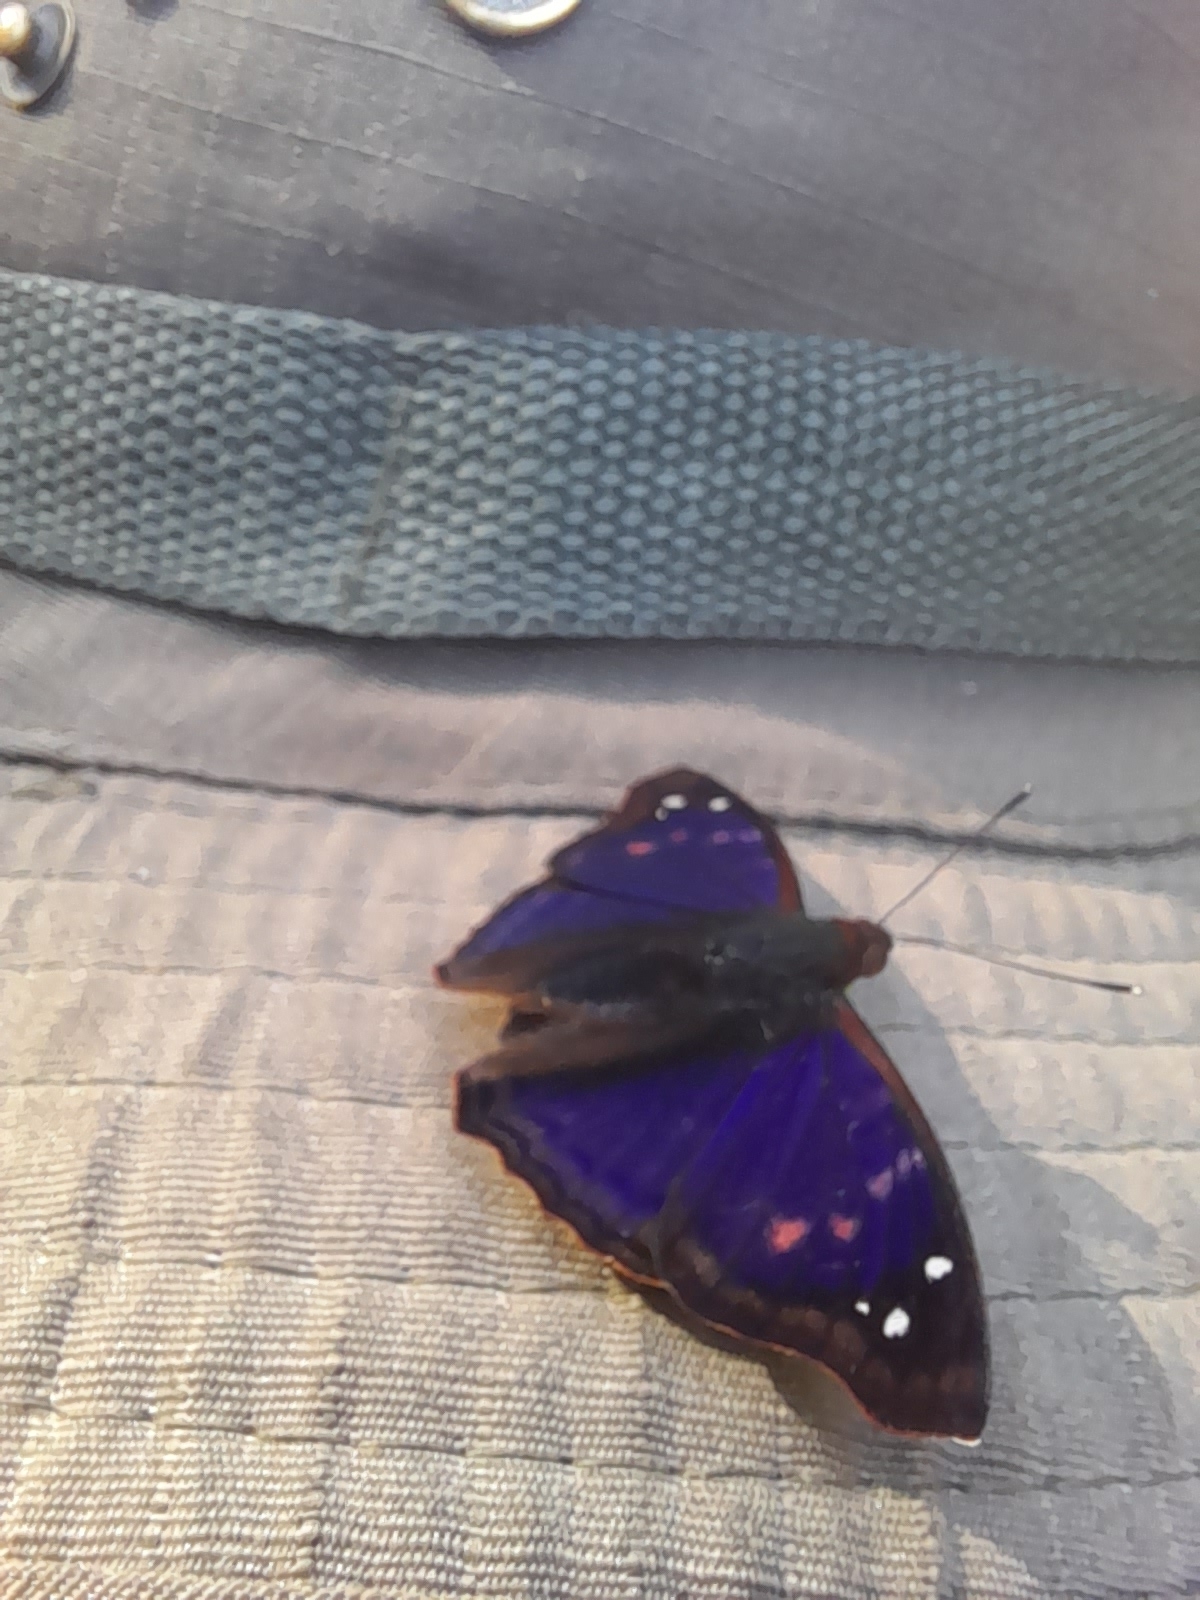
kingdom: Animalia
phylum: Arthropoda
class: Insecta
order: Lepidoptera
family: Nymphalidae
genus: Doxocopa
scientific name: Doxocopa agathina
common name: Agathina emperor
